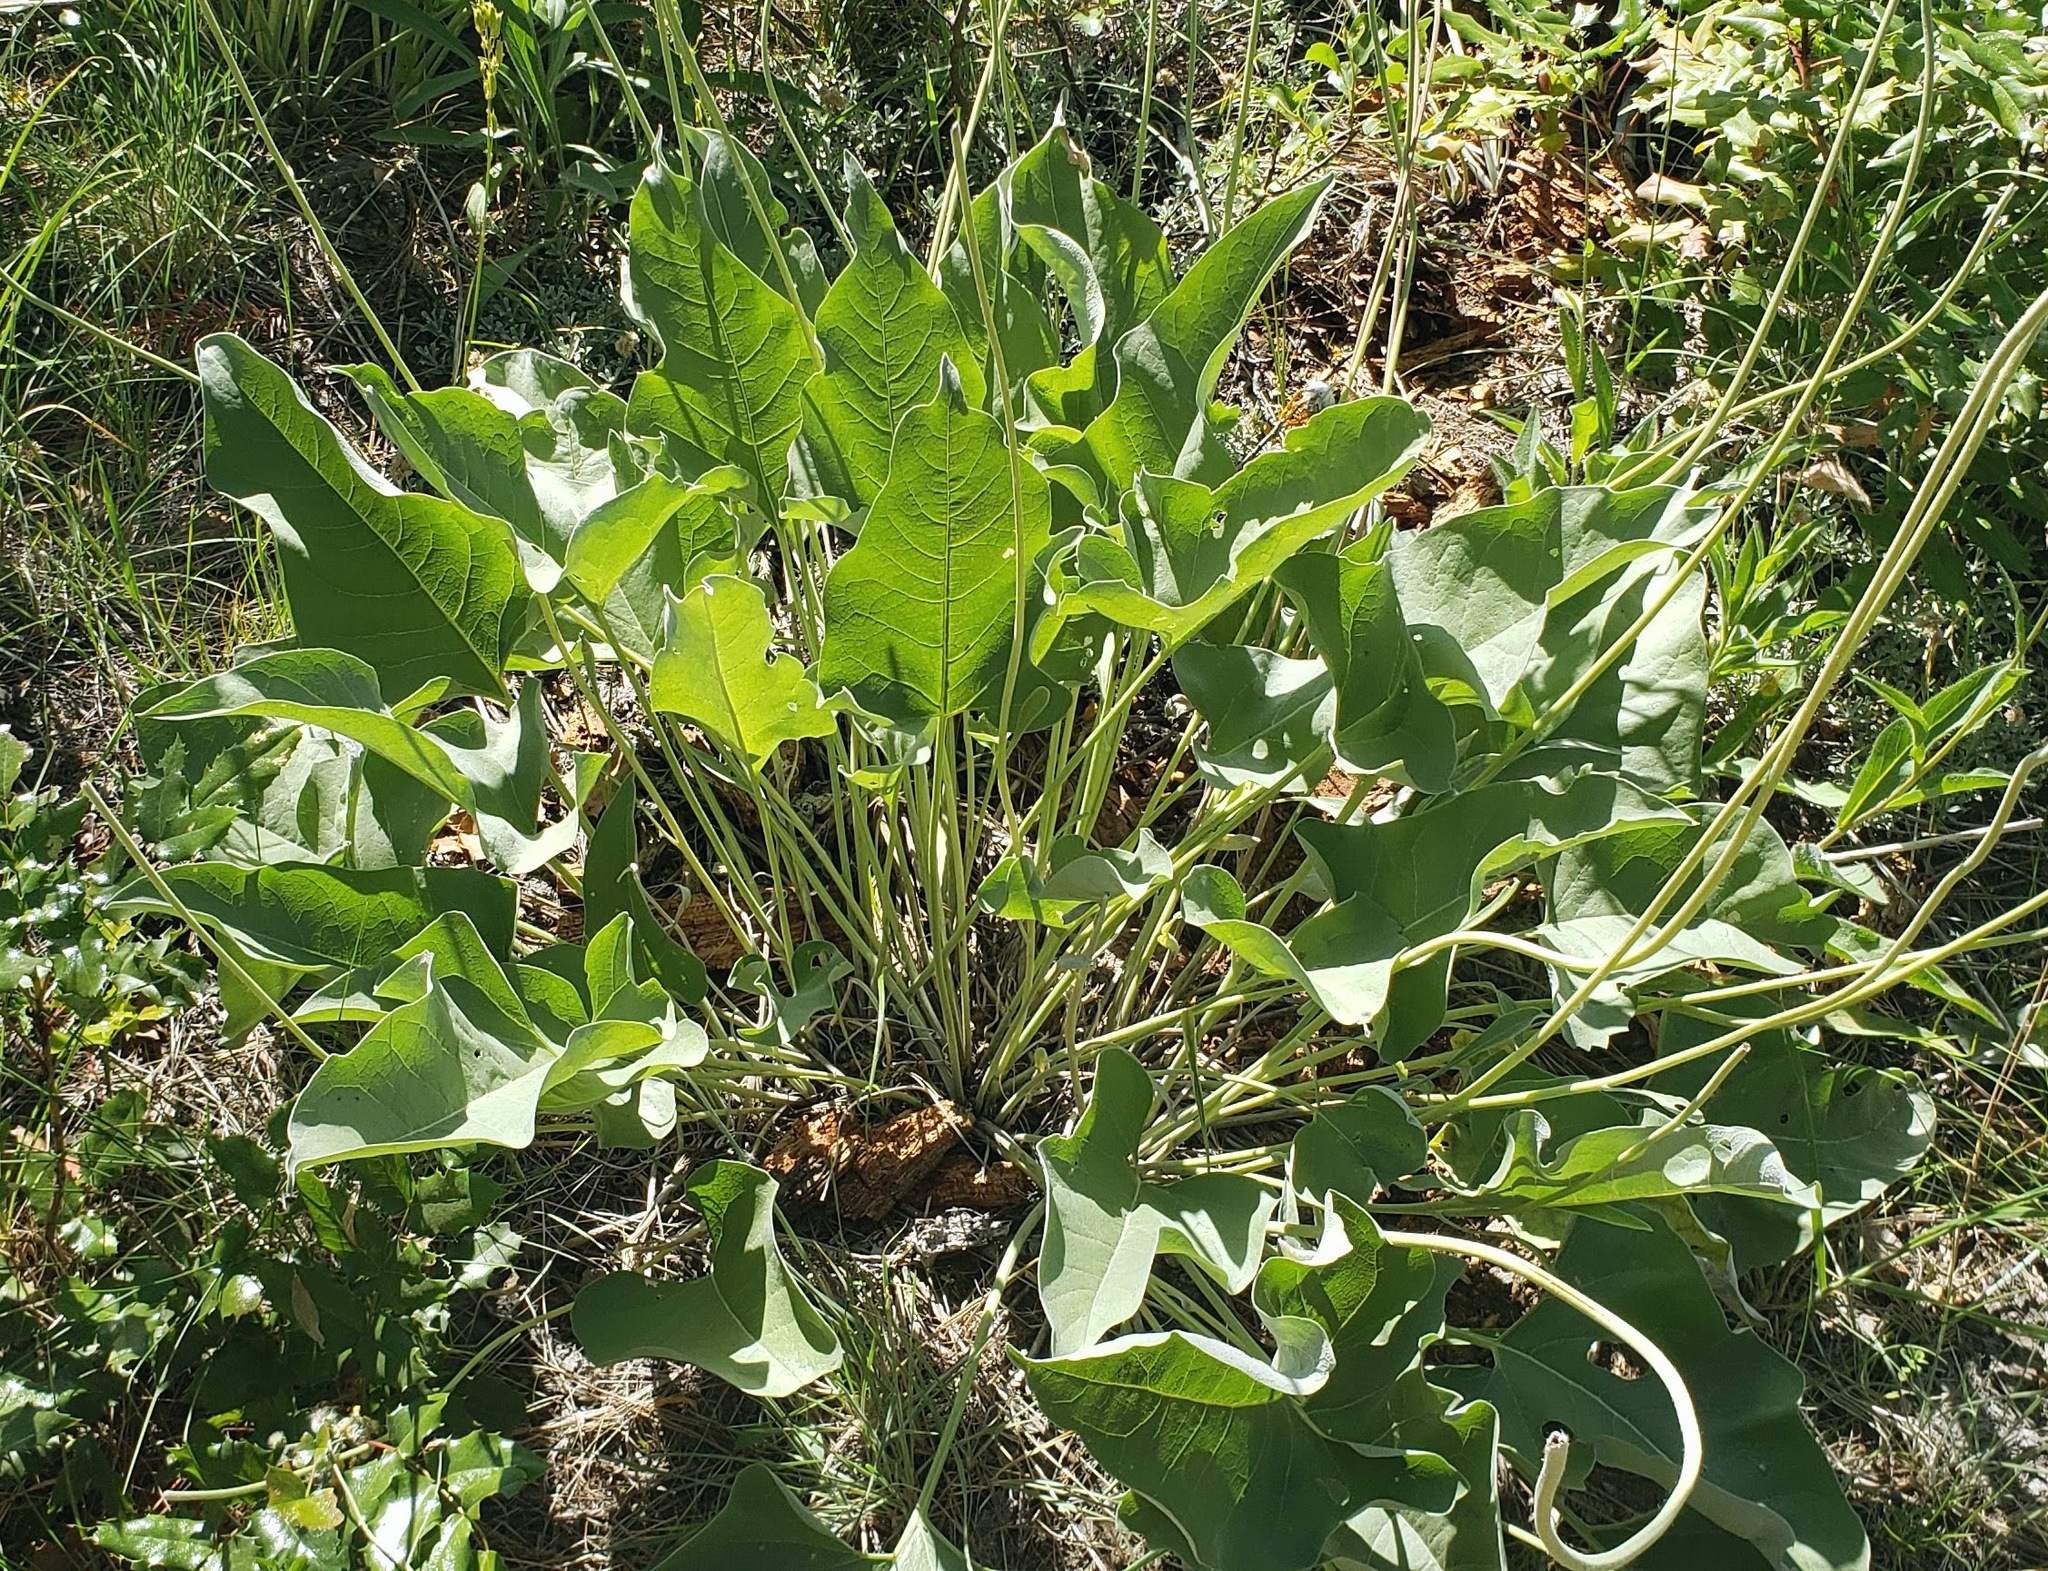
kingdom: Plantae
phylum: Tracheophyta
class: Magnoliopsida
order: Asterales
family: Asteraceae
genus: Wyethia
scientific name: Wyethia sagittata
